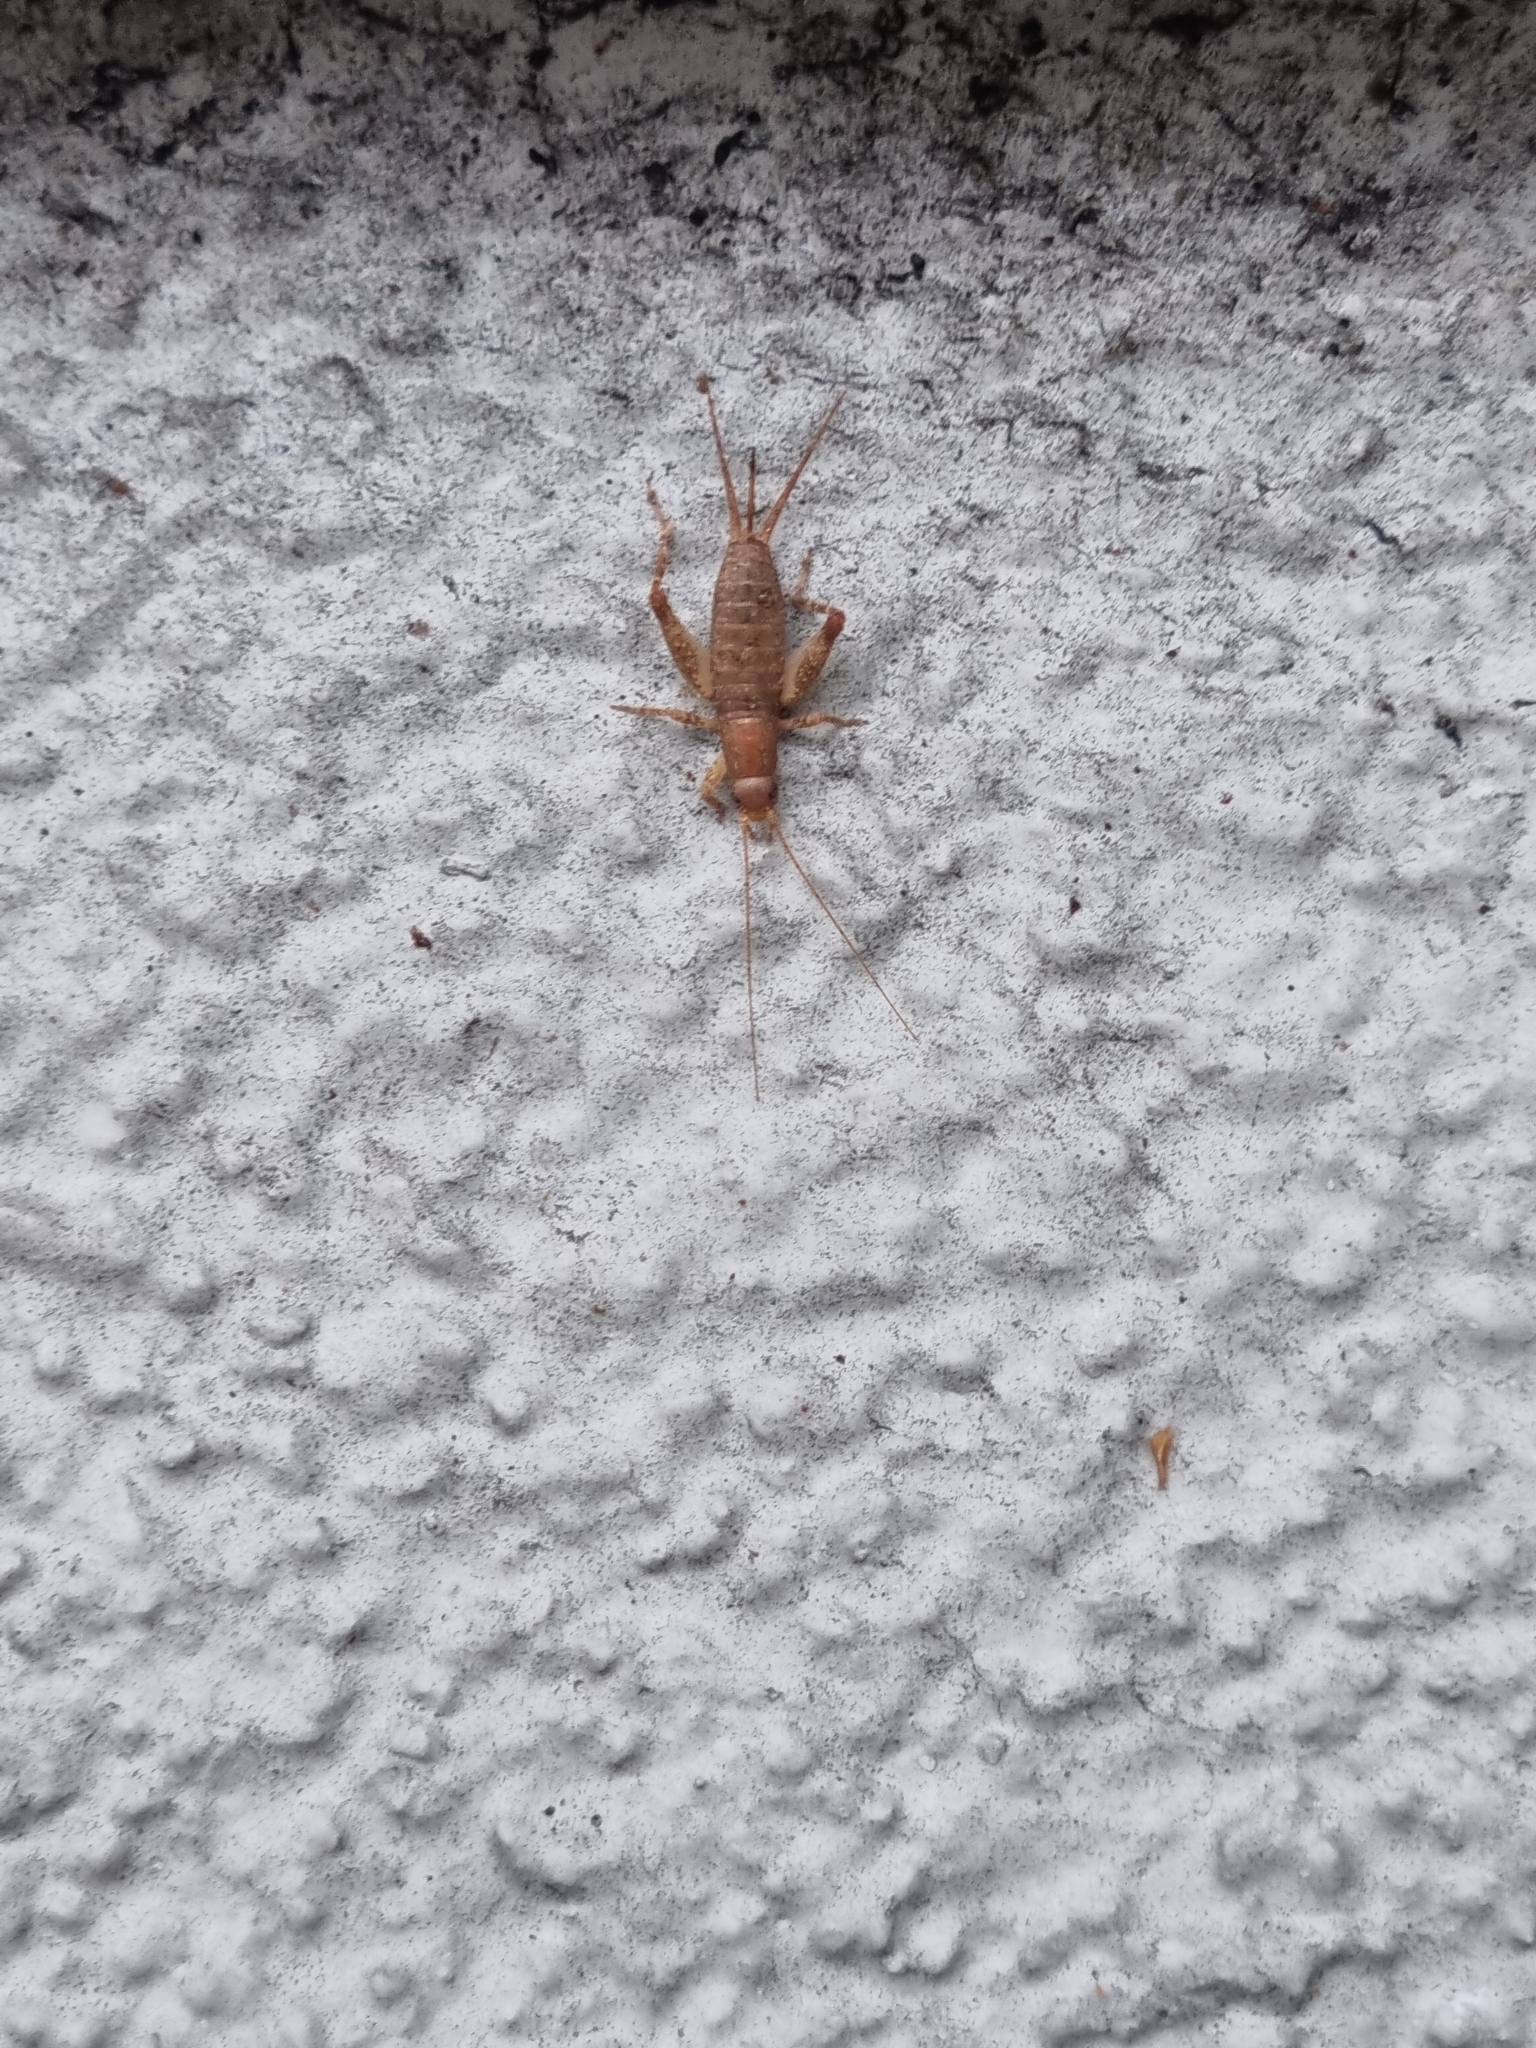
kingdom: Animalia
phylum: Arthropoda
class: Insecta
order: Orthoptera
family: Mogoplistidae
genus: Ornebius
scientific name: Ornebius aperta
